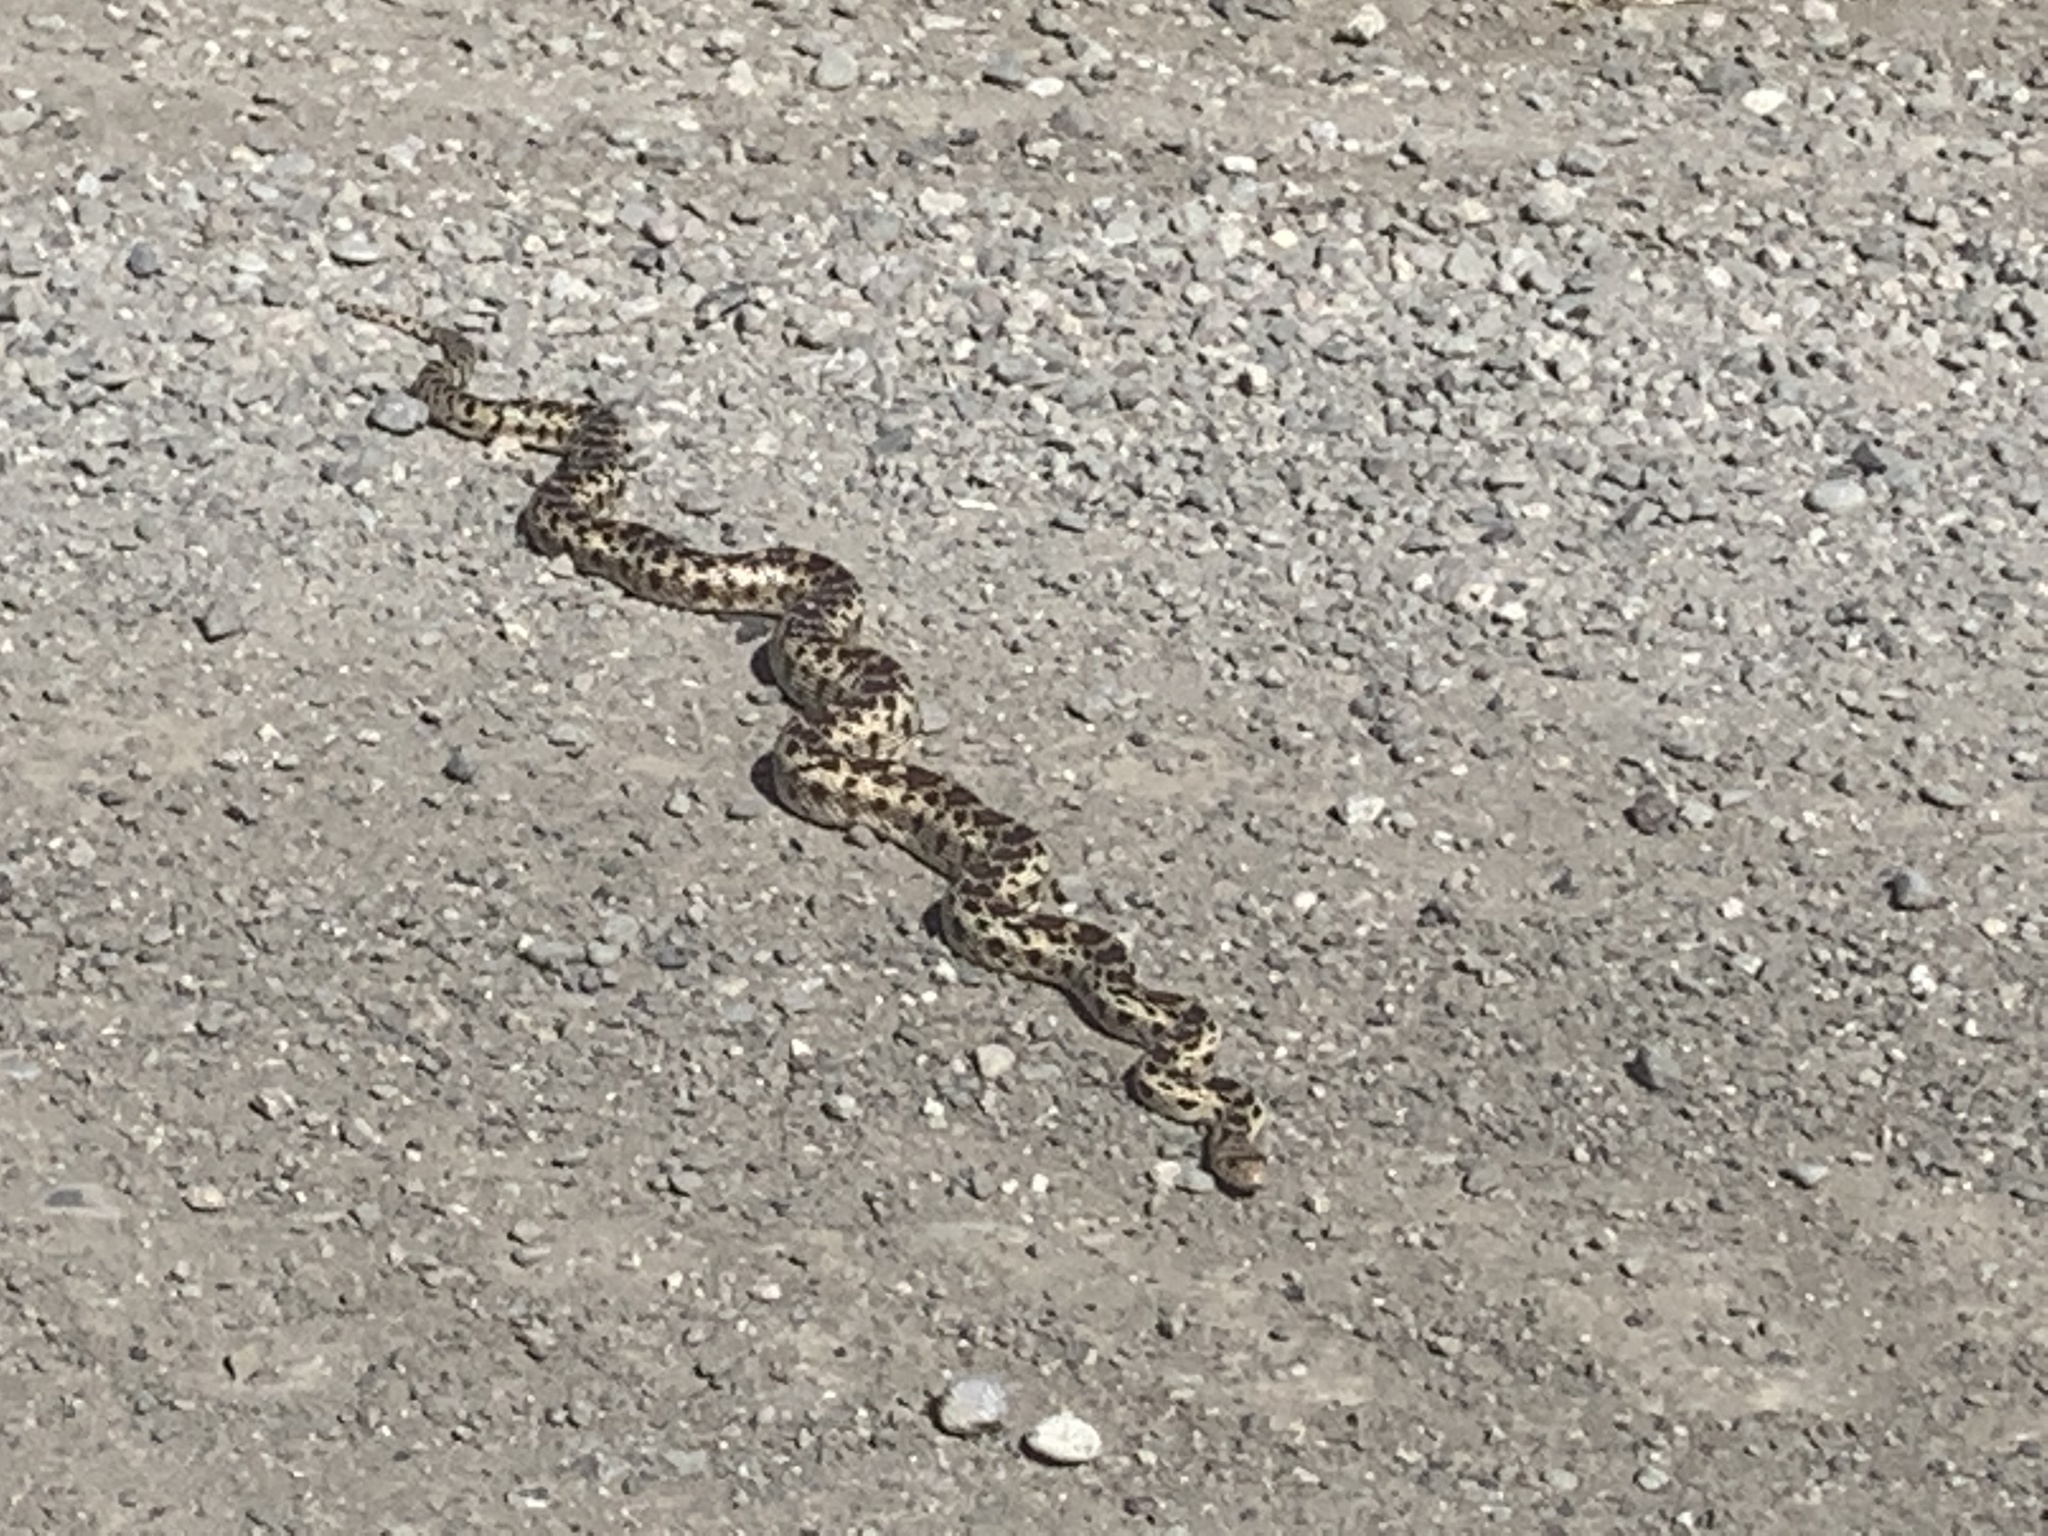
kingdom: Animalia
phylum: Chordata
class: Squamata
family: Colubridae
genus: Pituophis
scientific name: Pituophis catenifer
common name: Gopher snake
